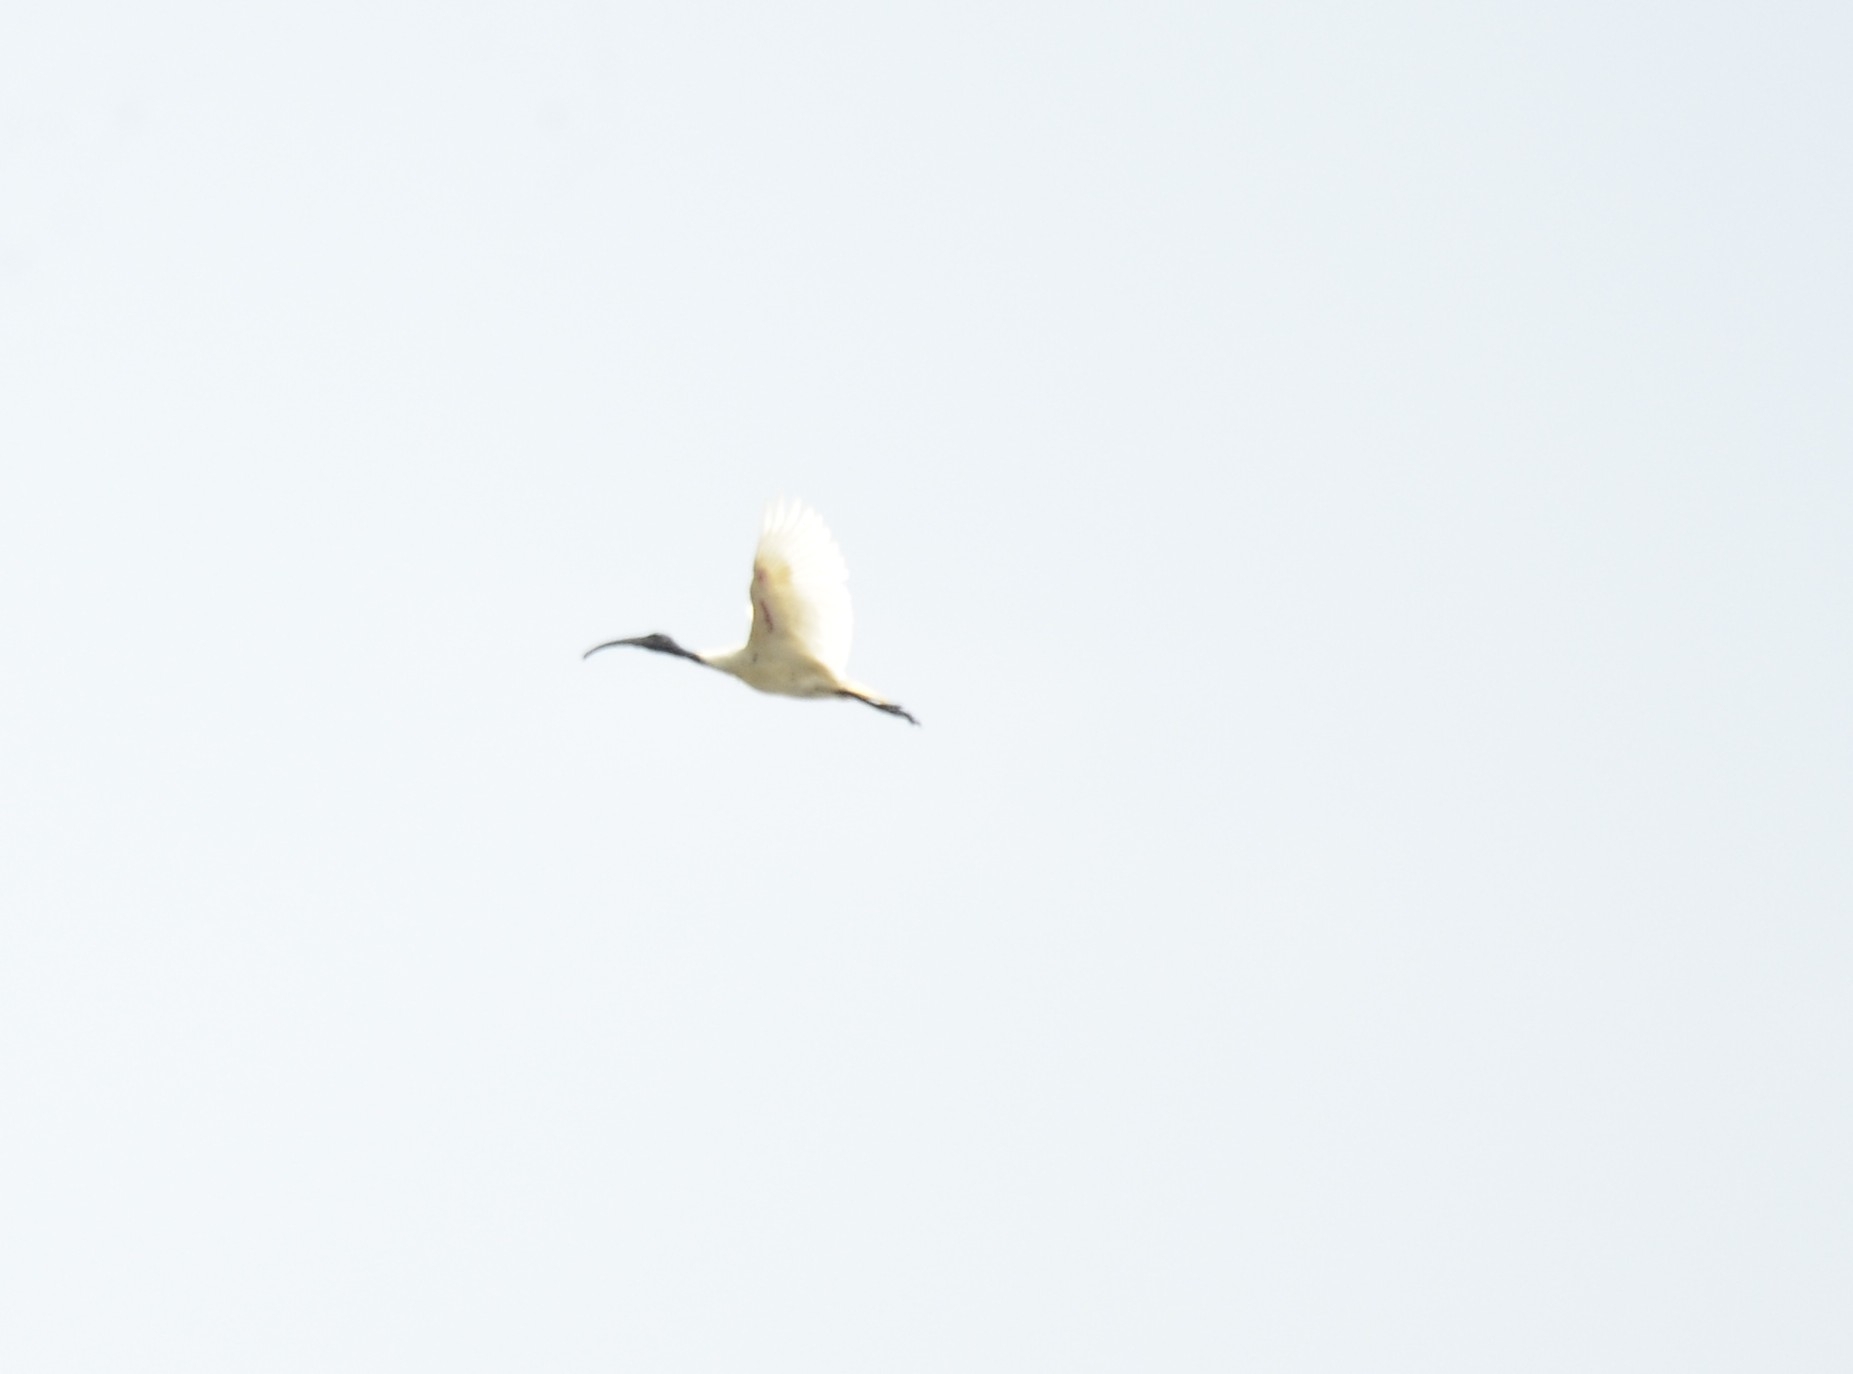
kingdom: Animalia
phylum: Chordata
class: Aves
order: Pelecaniformes
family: Threskiornithidae
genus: Threskiornis
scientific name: Threskiornis melanocephalus
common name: Black-headed ibis
